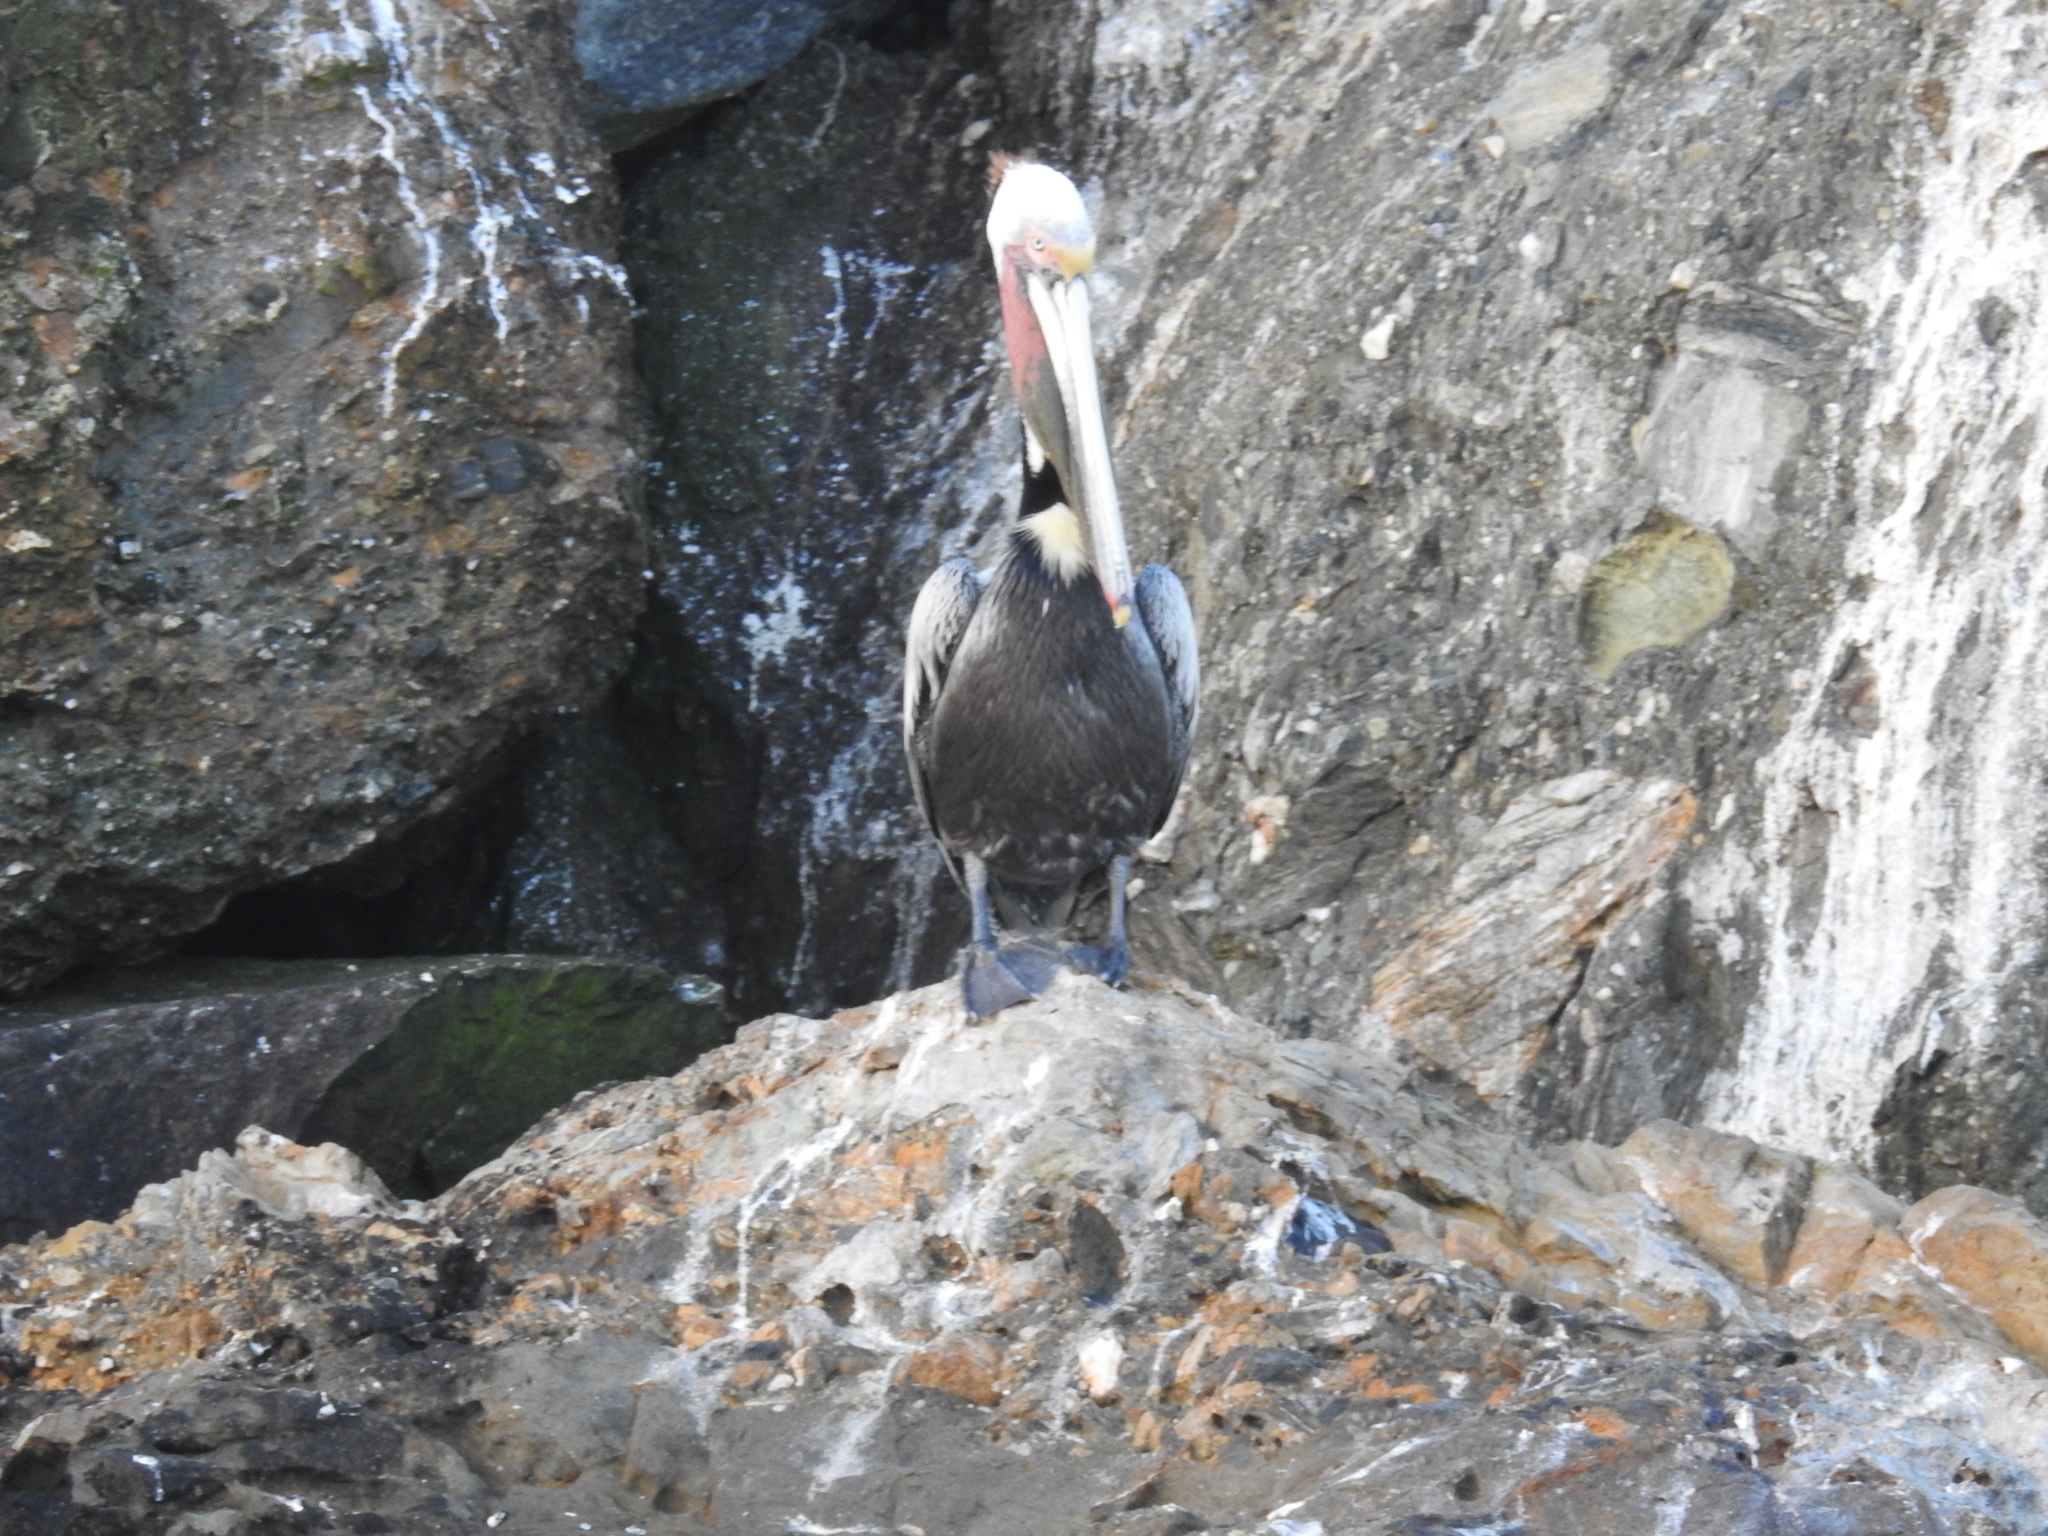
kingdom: Animalia
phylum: Chordata
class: Aves
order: Pelecaniformes
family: Pelecanidae
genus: Pelecanus
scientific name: Pelecanus occidentalis
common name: Brown pelican
